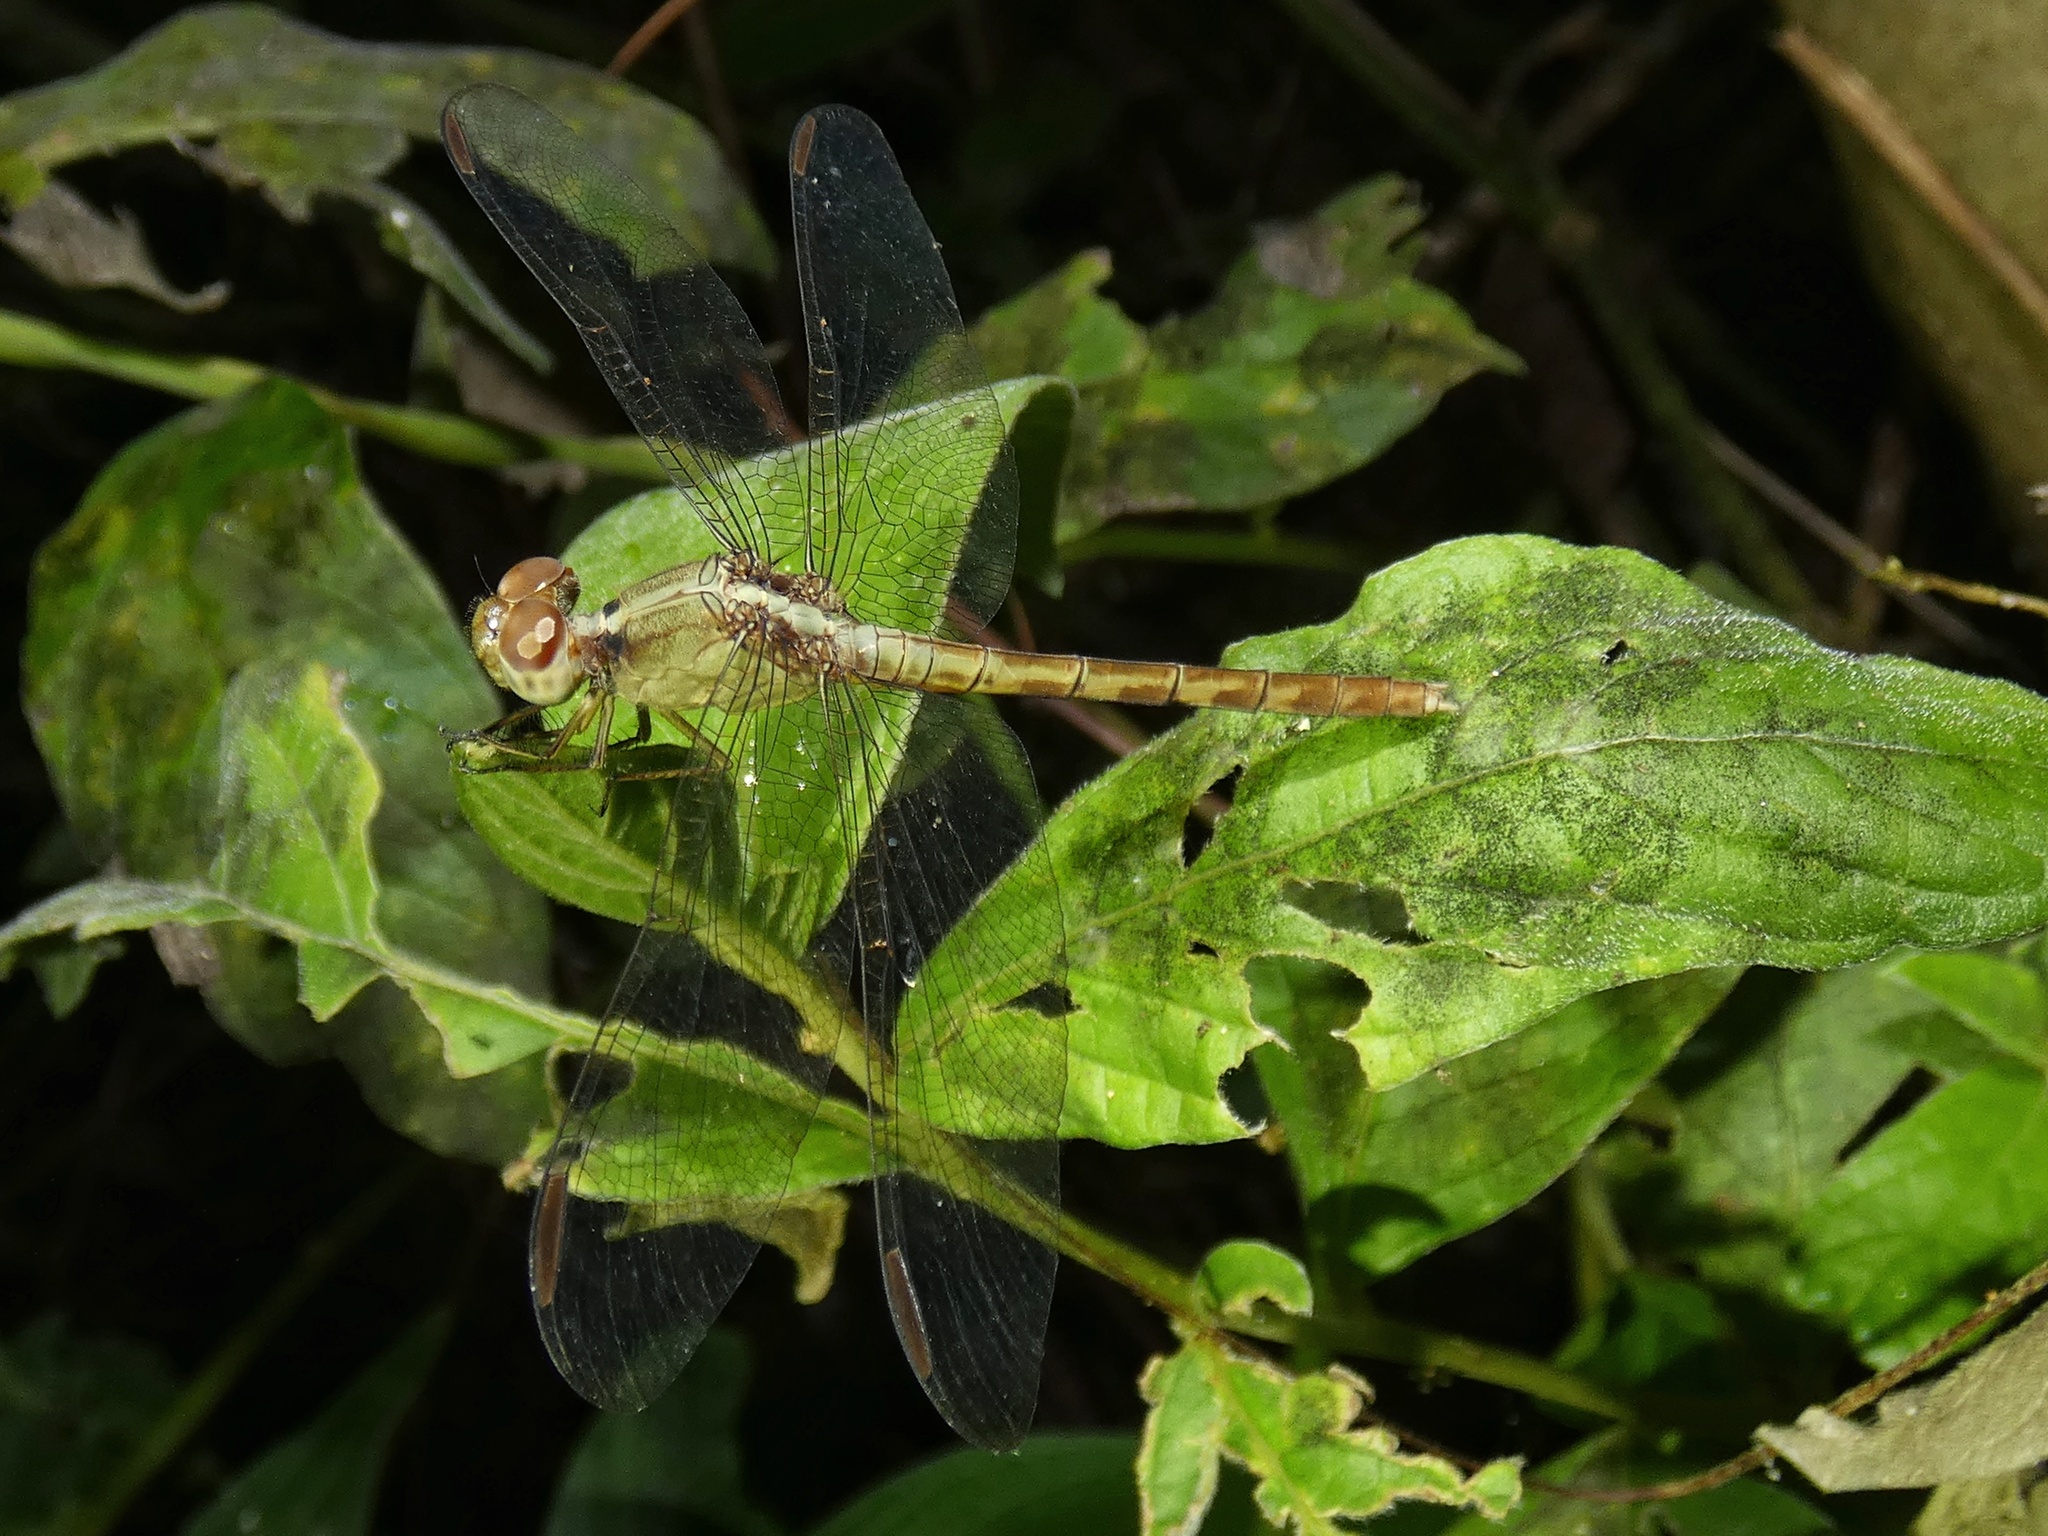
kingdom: Animalia
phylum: Arthropoda
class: Insecta
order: Odonata
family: Libellulidae
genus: Erythrodiplax
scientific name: Erythrodiplax funerea
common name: Black-winged dragonlet
